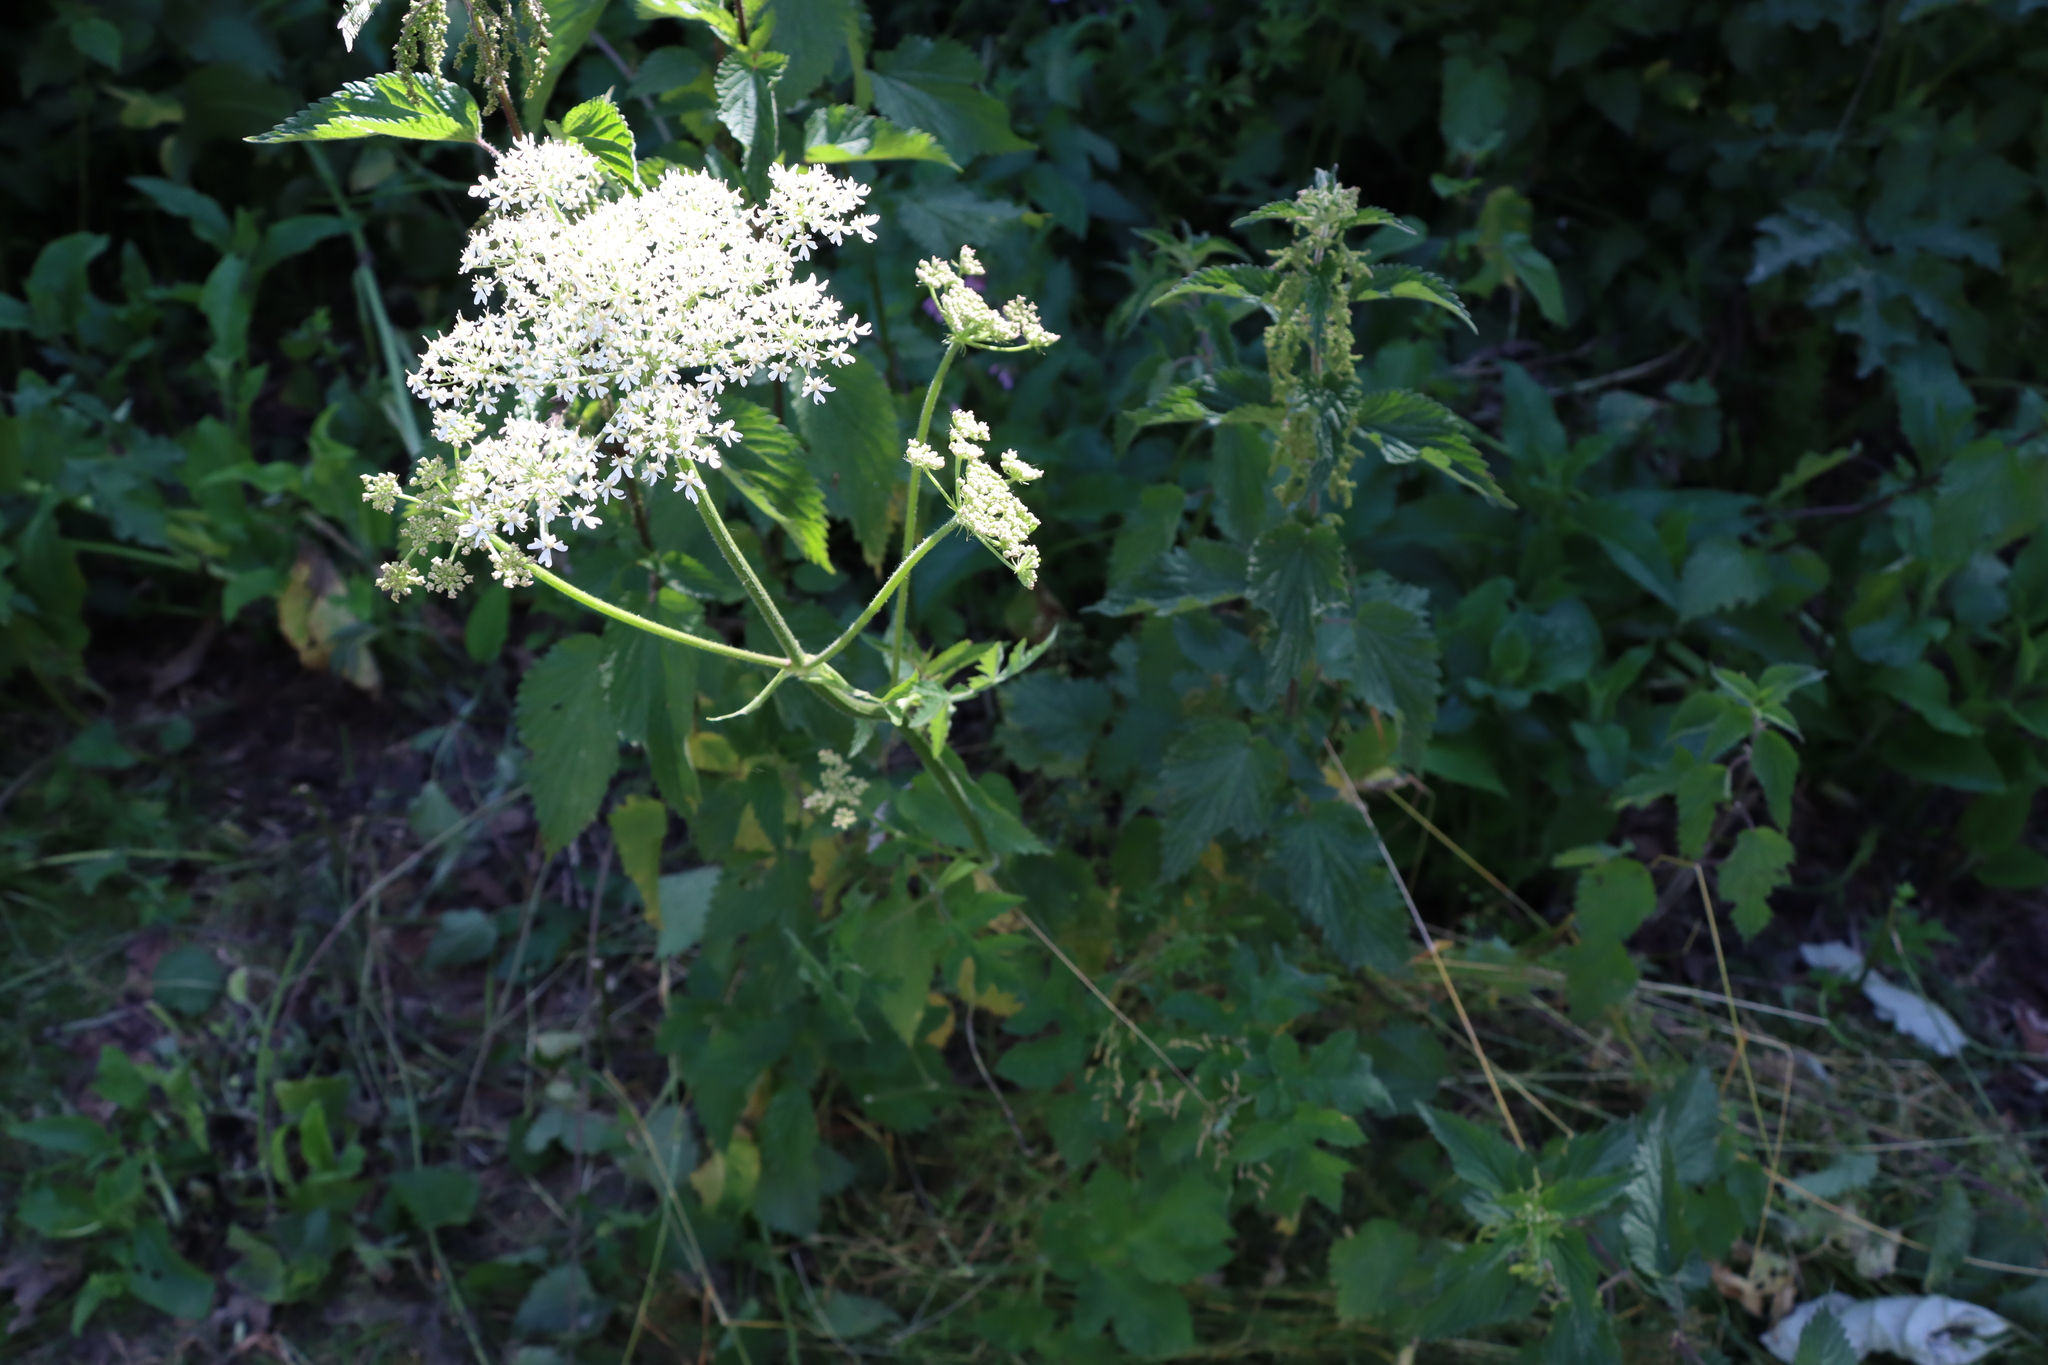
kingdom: Plantae
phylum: Tracheophyta
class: Magnoliopsida
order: Apiales
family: Apiaceae
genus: Heracleum
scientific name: Heracleum sphondylium
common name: Hogweed
